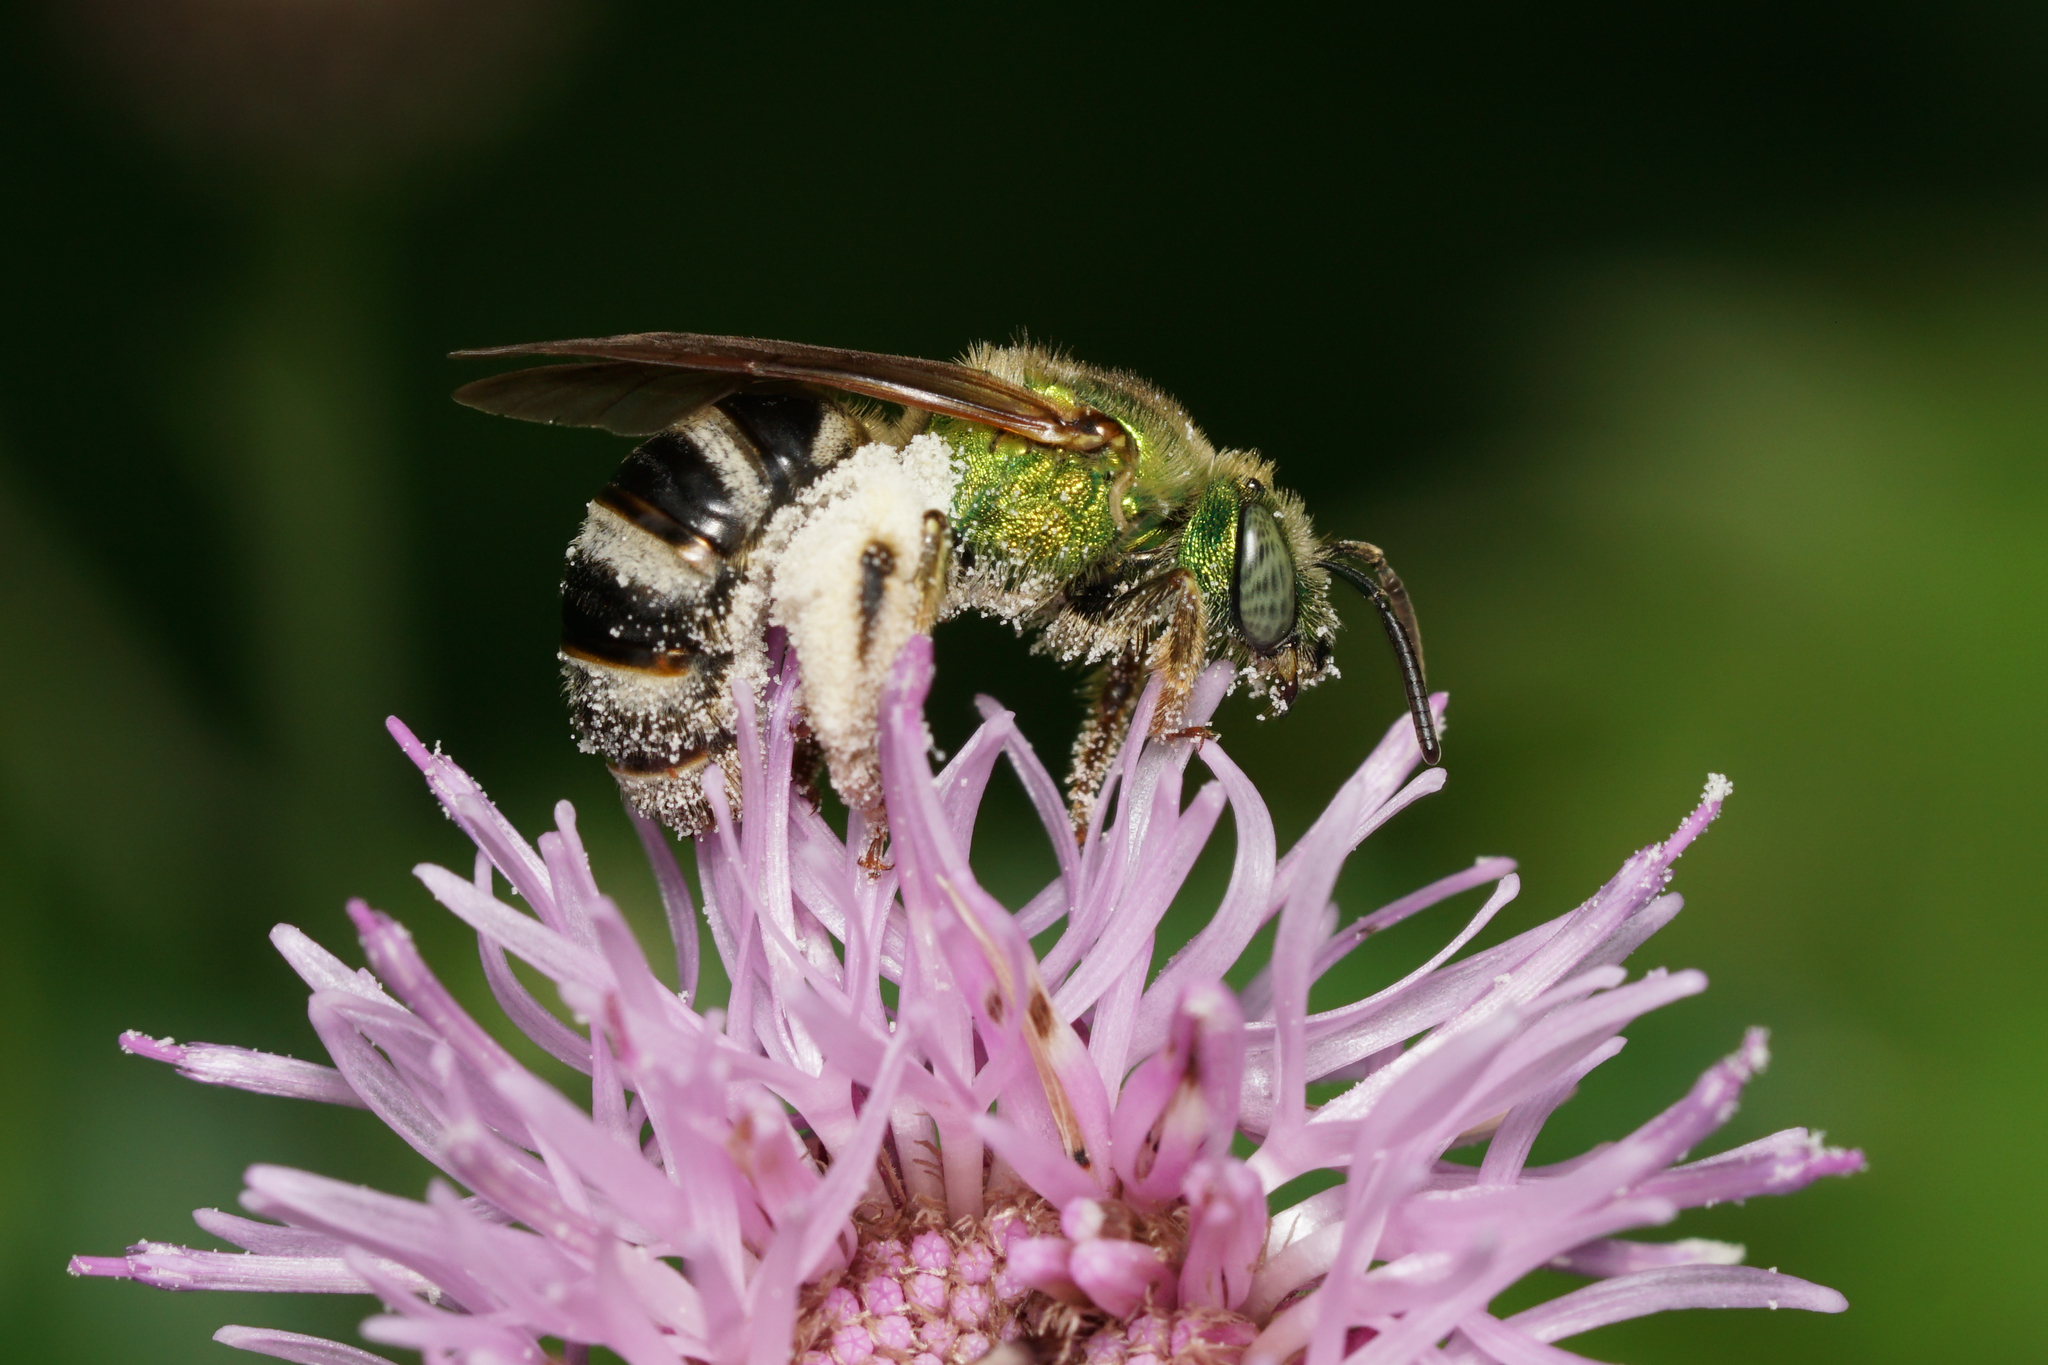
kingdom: Animalia
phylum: Arthropoda
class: Insecta
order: Hymenoptera
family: Halictidae
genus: Agapostemon
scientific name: Agapostemon virescens
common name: Bicolored striped sweat bee
